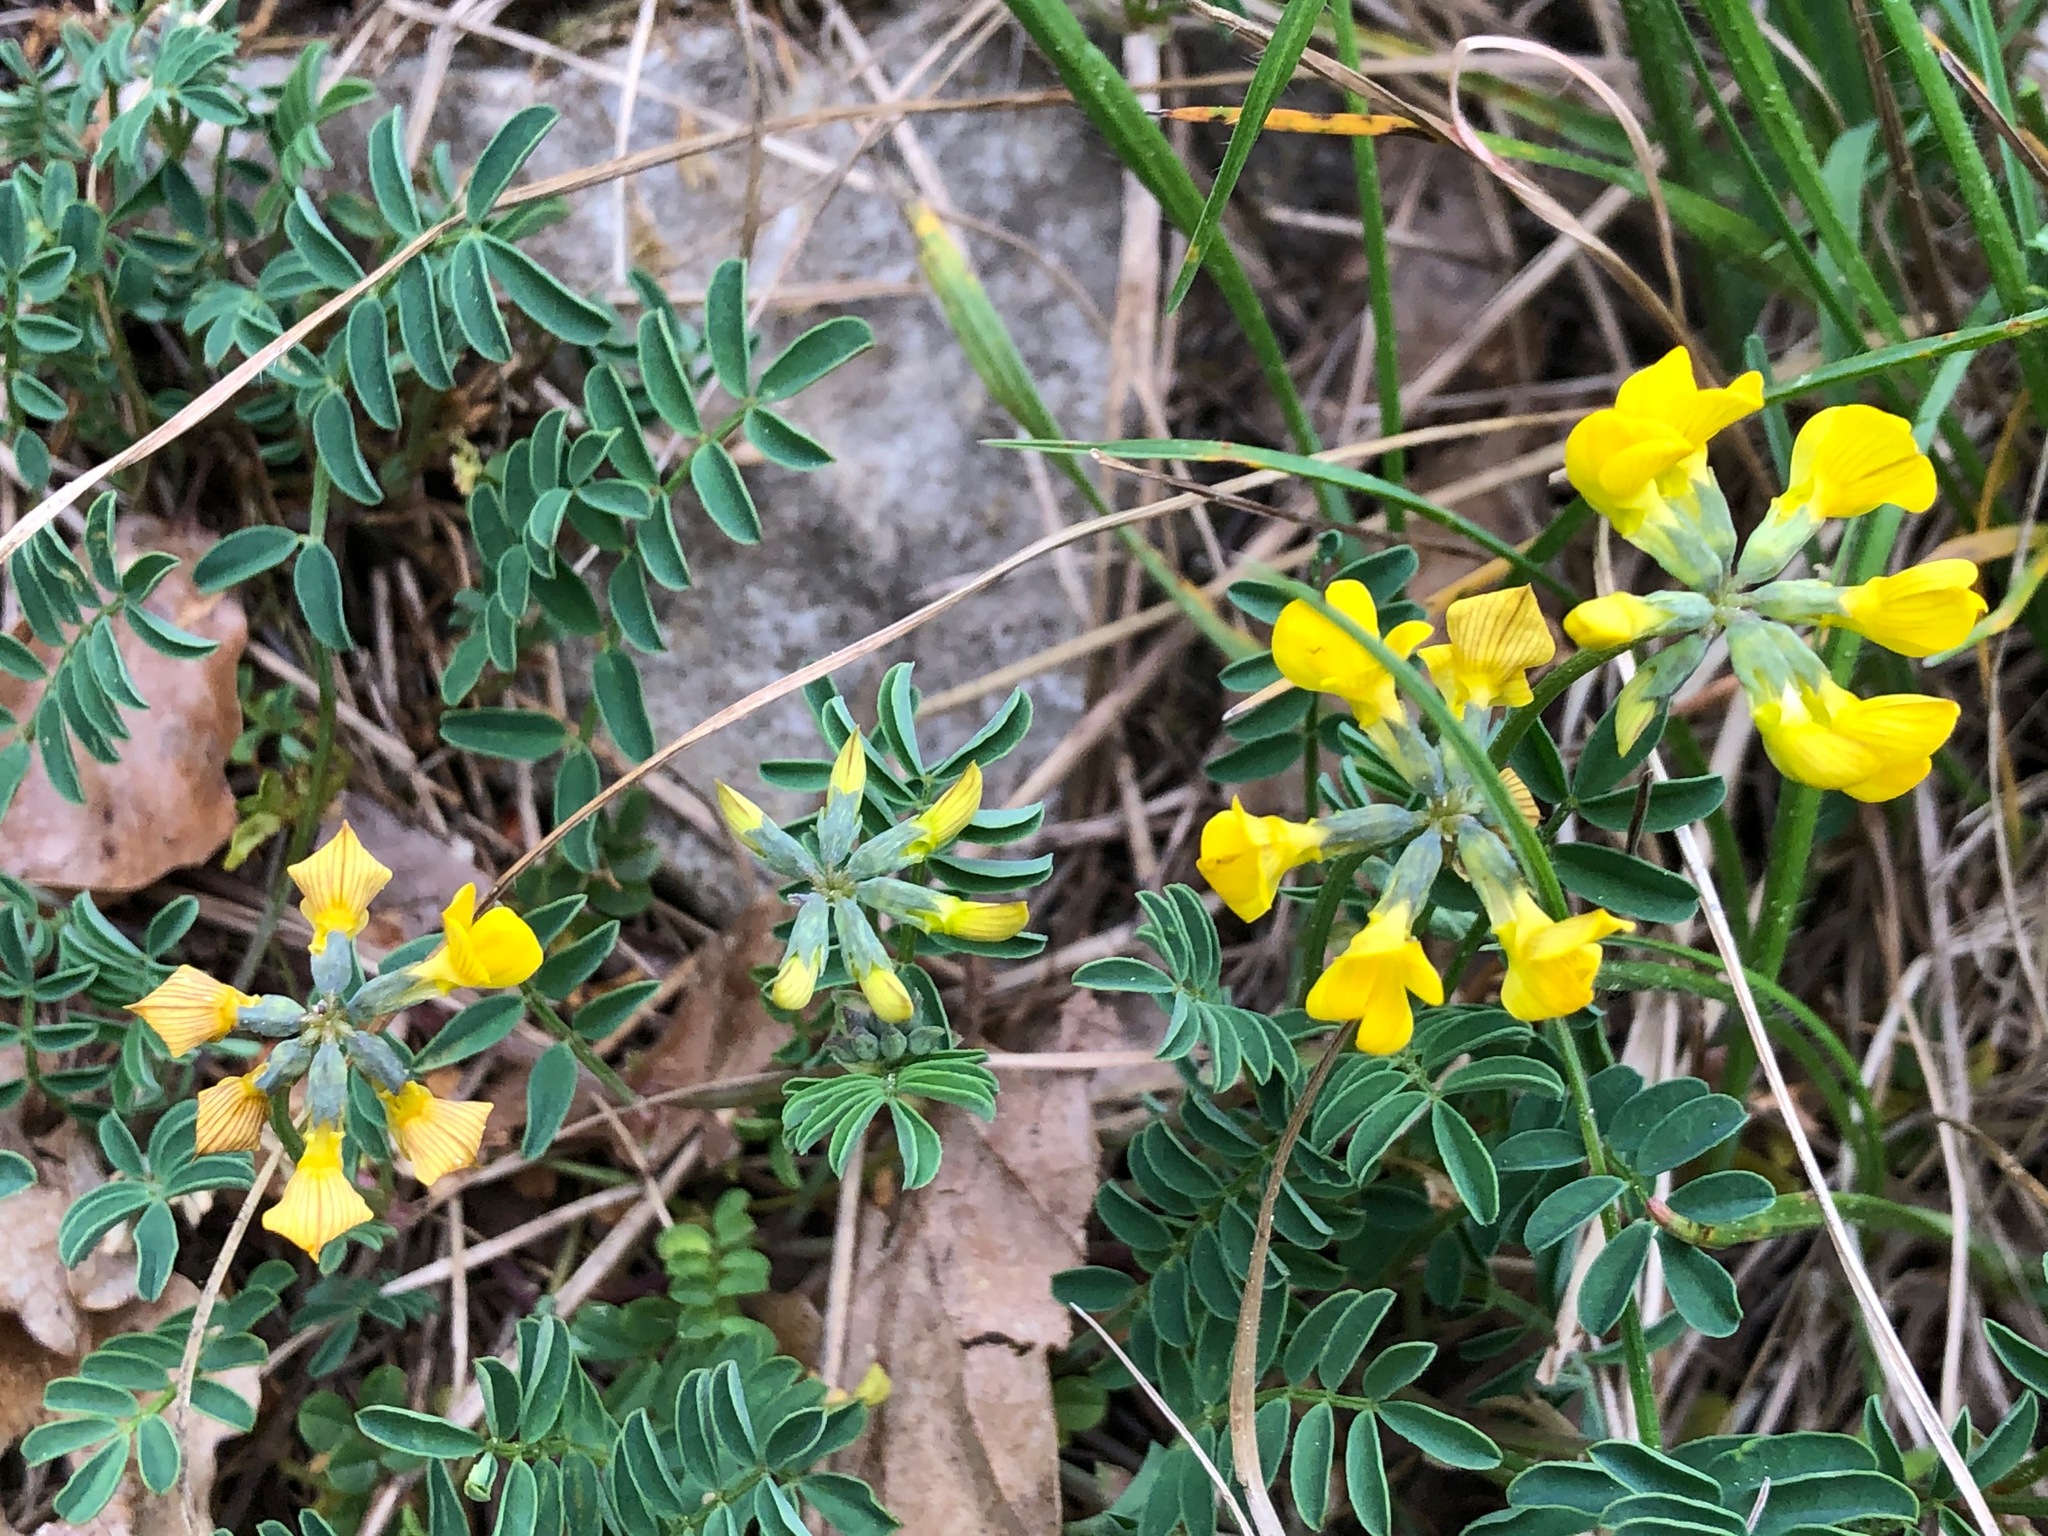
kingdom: Plantae
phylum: Tracheophyta
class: Magnoliopsida
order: Fabales
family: Fabaceae
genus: Hippocrepis
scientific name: Hippocrepis comosa
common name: Horseshoe vetch
